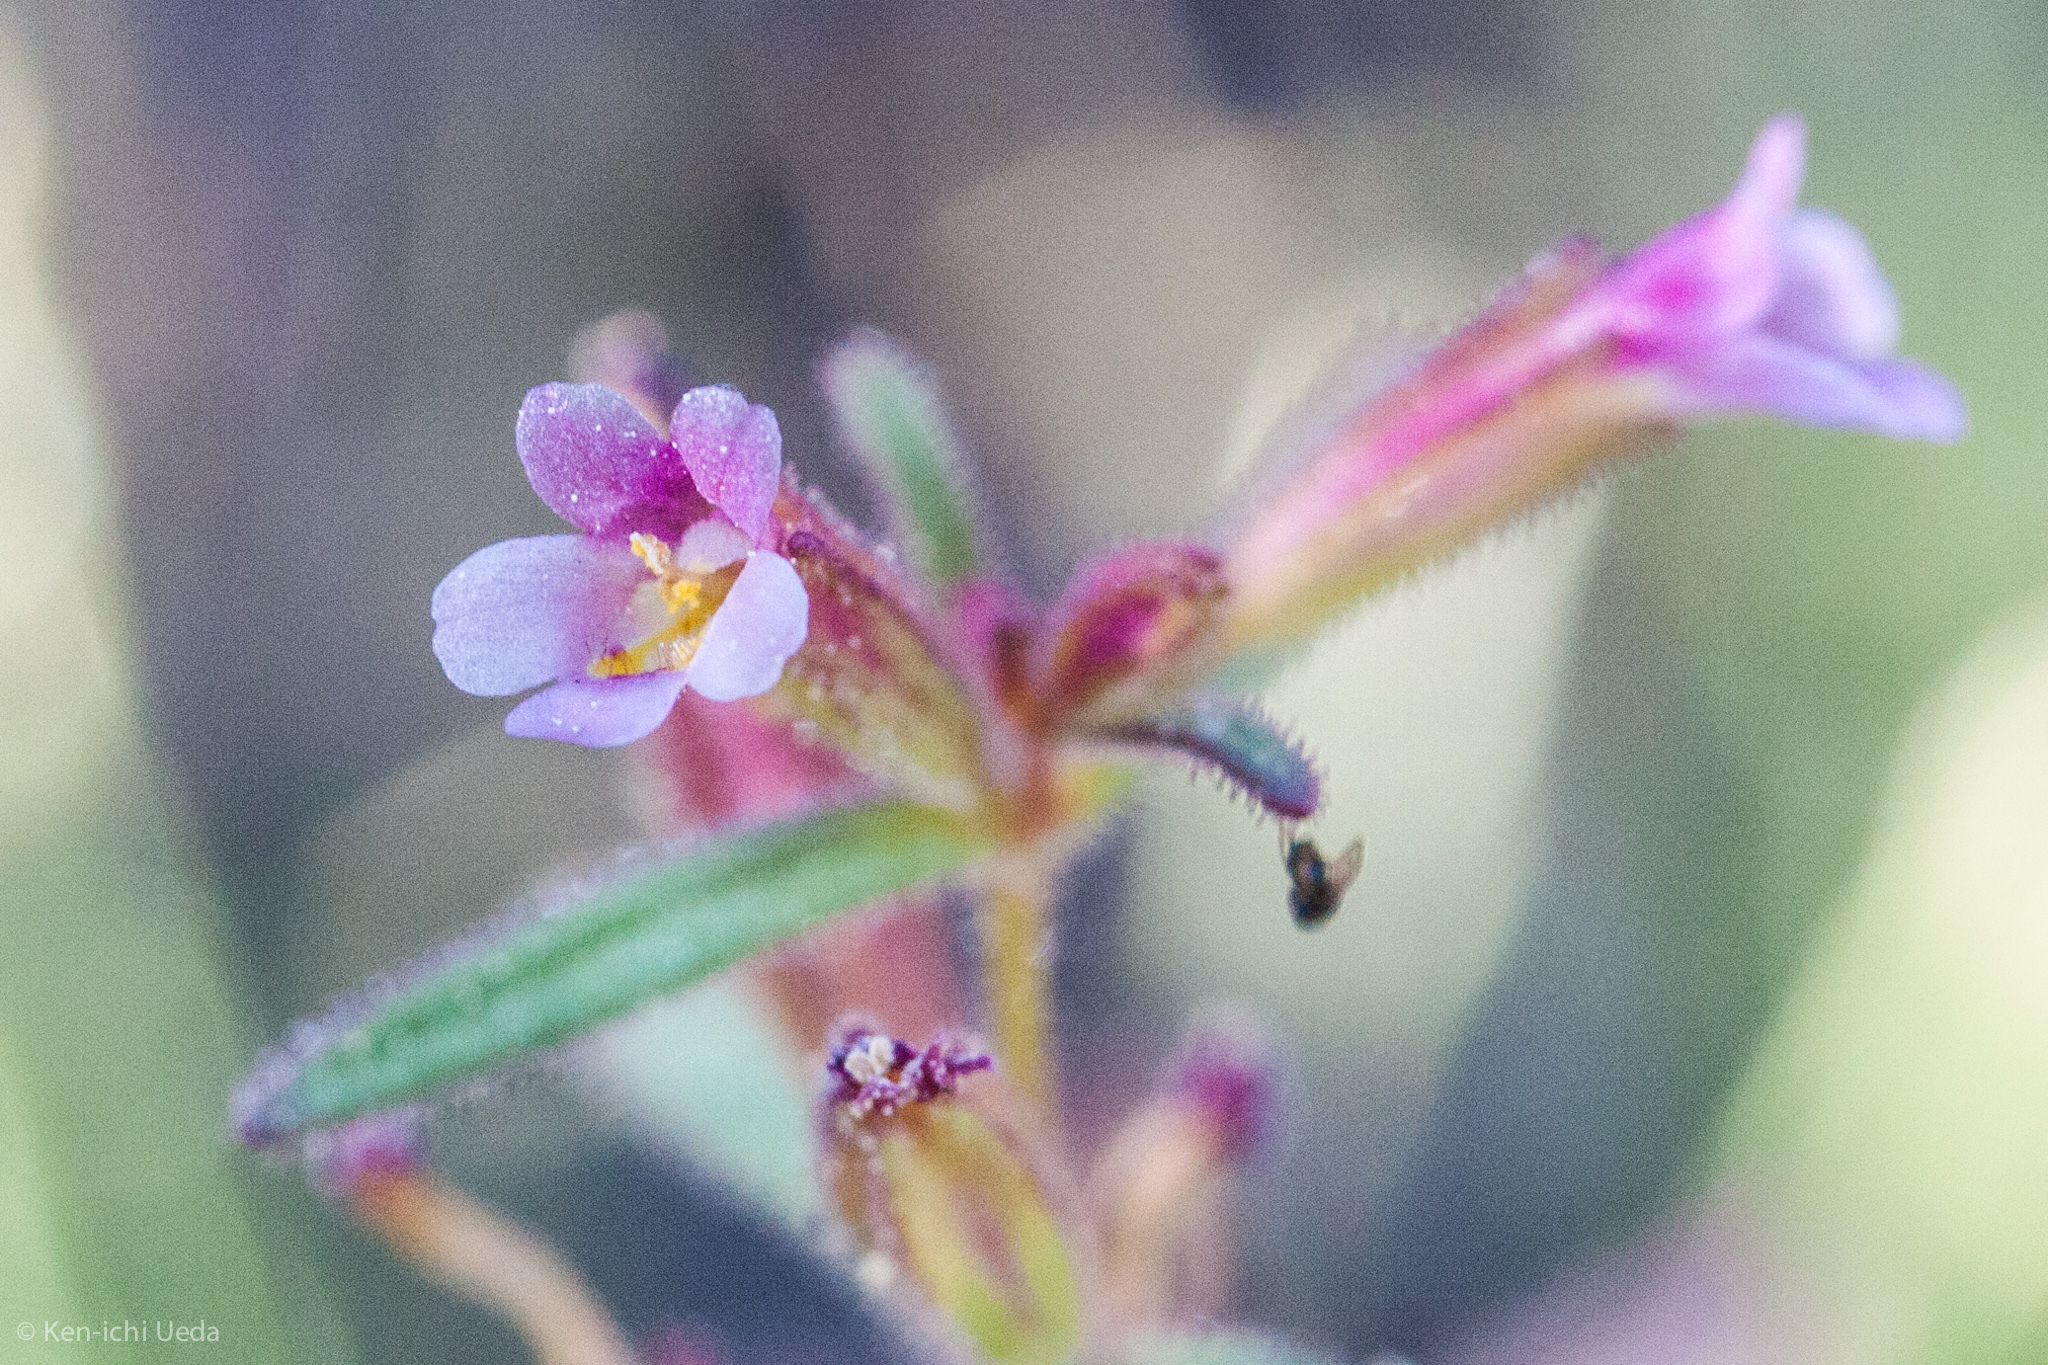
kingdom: Plantae
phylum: Tracheophyta
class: Magnoliopsida
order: Lamiales
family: Phrymaceae
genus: Erythranthe
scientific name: Erythranthe breweri
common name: Brewer's monkeyflower
